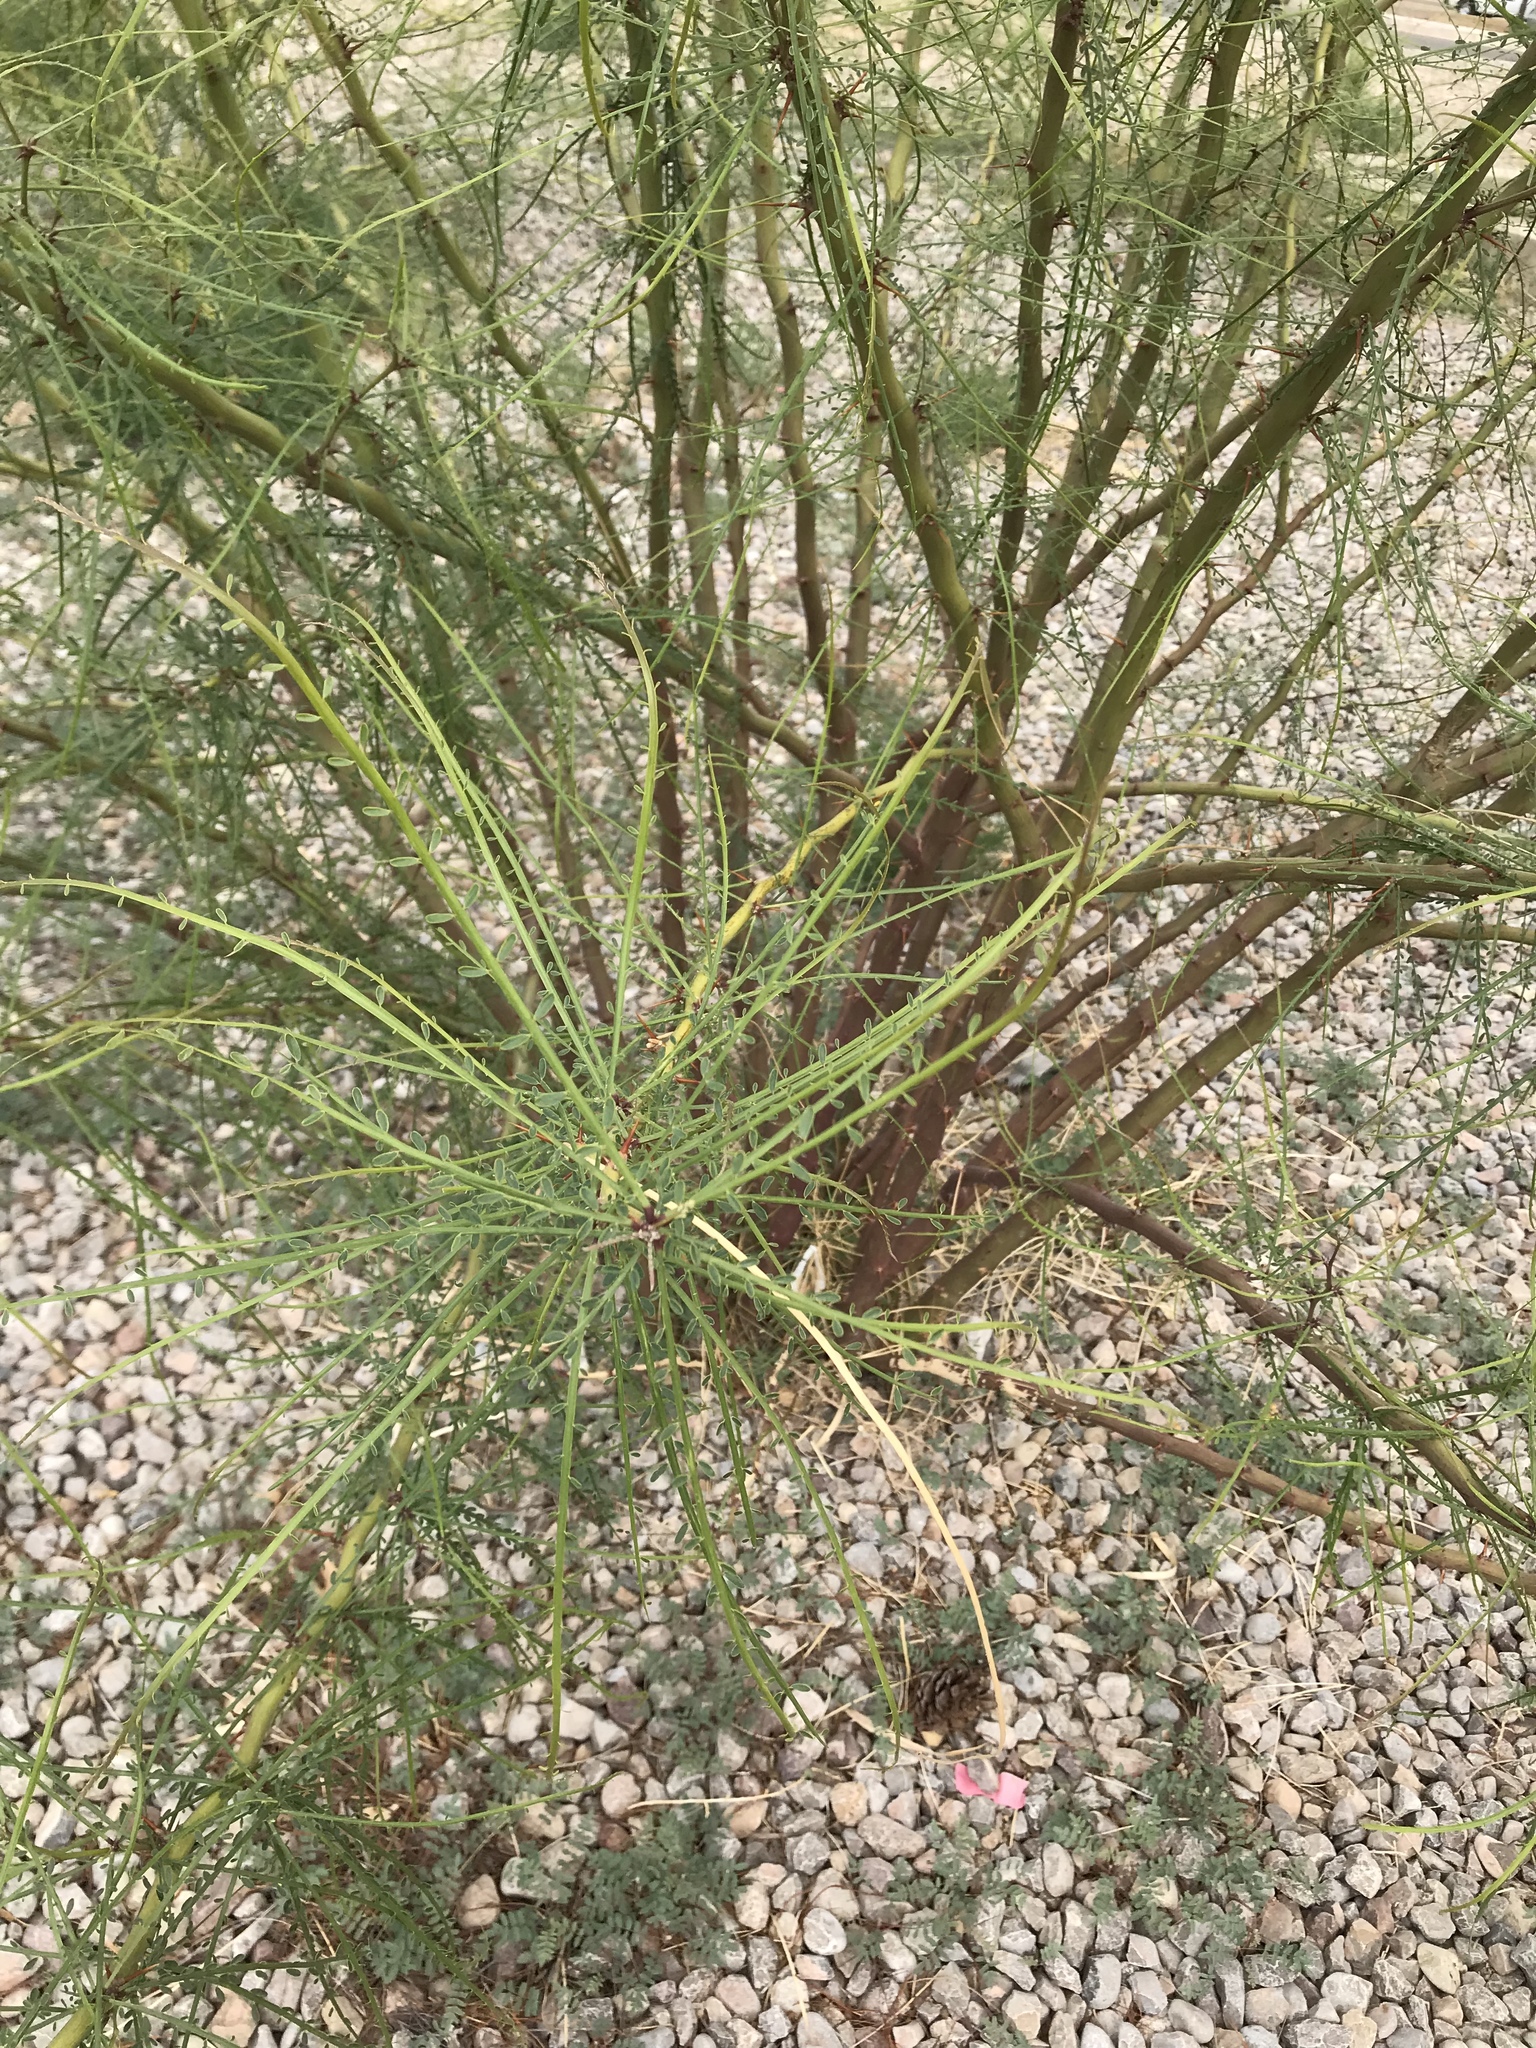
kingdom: Plantae
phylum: Tracheophyta
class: Magnoliopsida
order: Fabales
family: Fabaceae
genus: Parkinsonia
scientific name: Parkinsonia aculeata
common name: Jerusalem thorn
